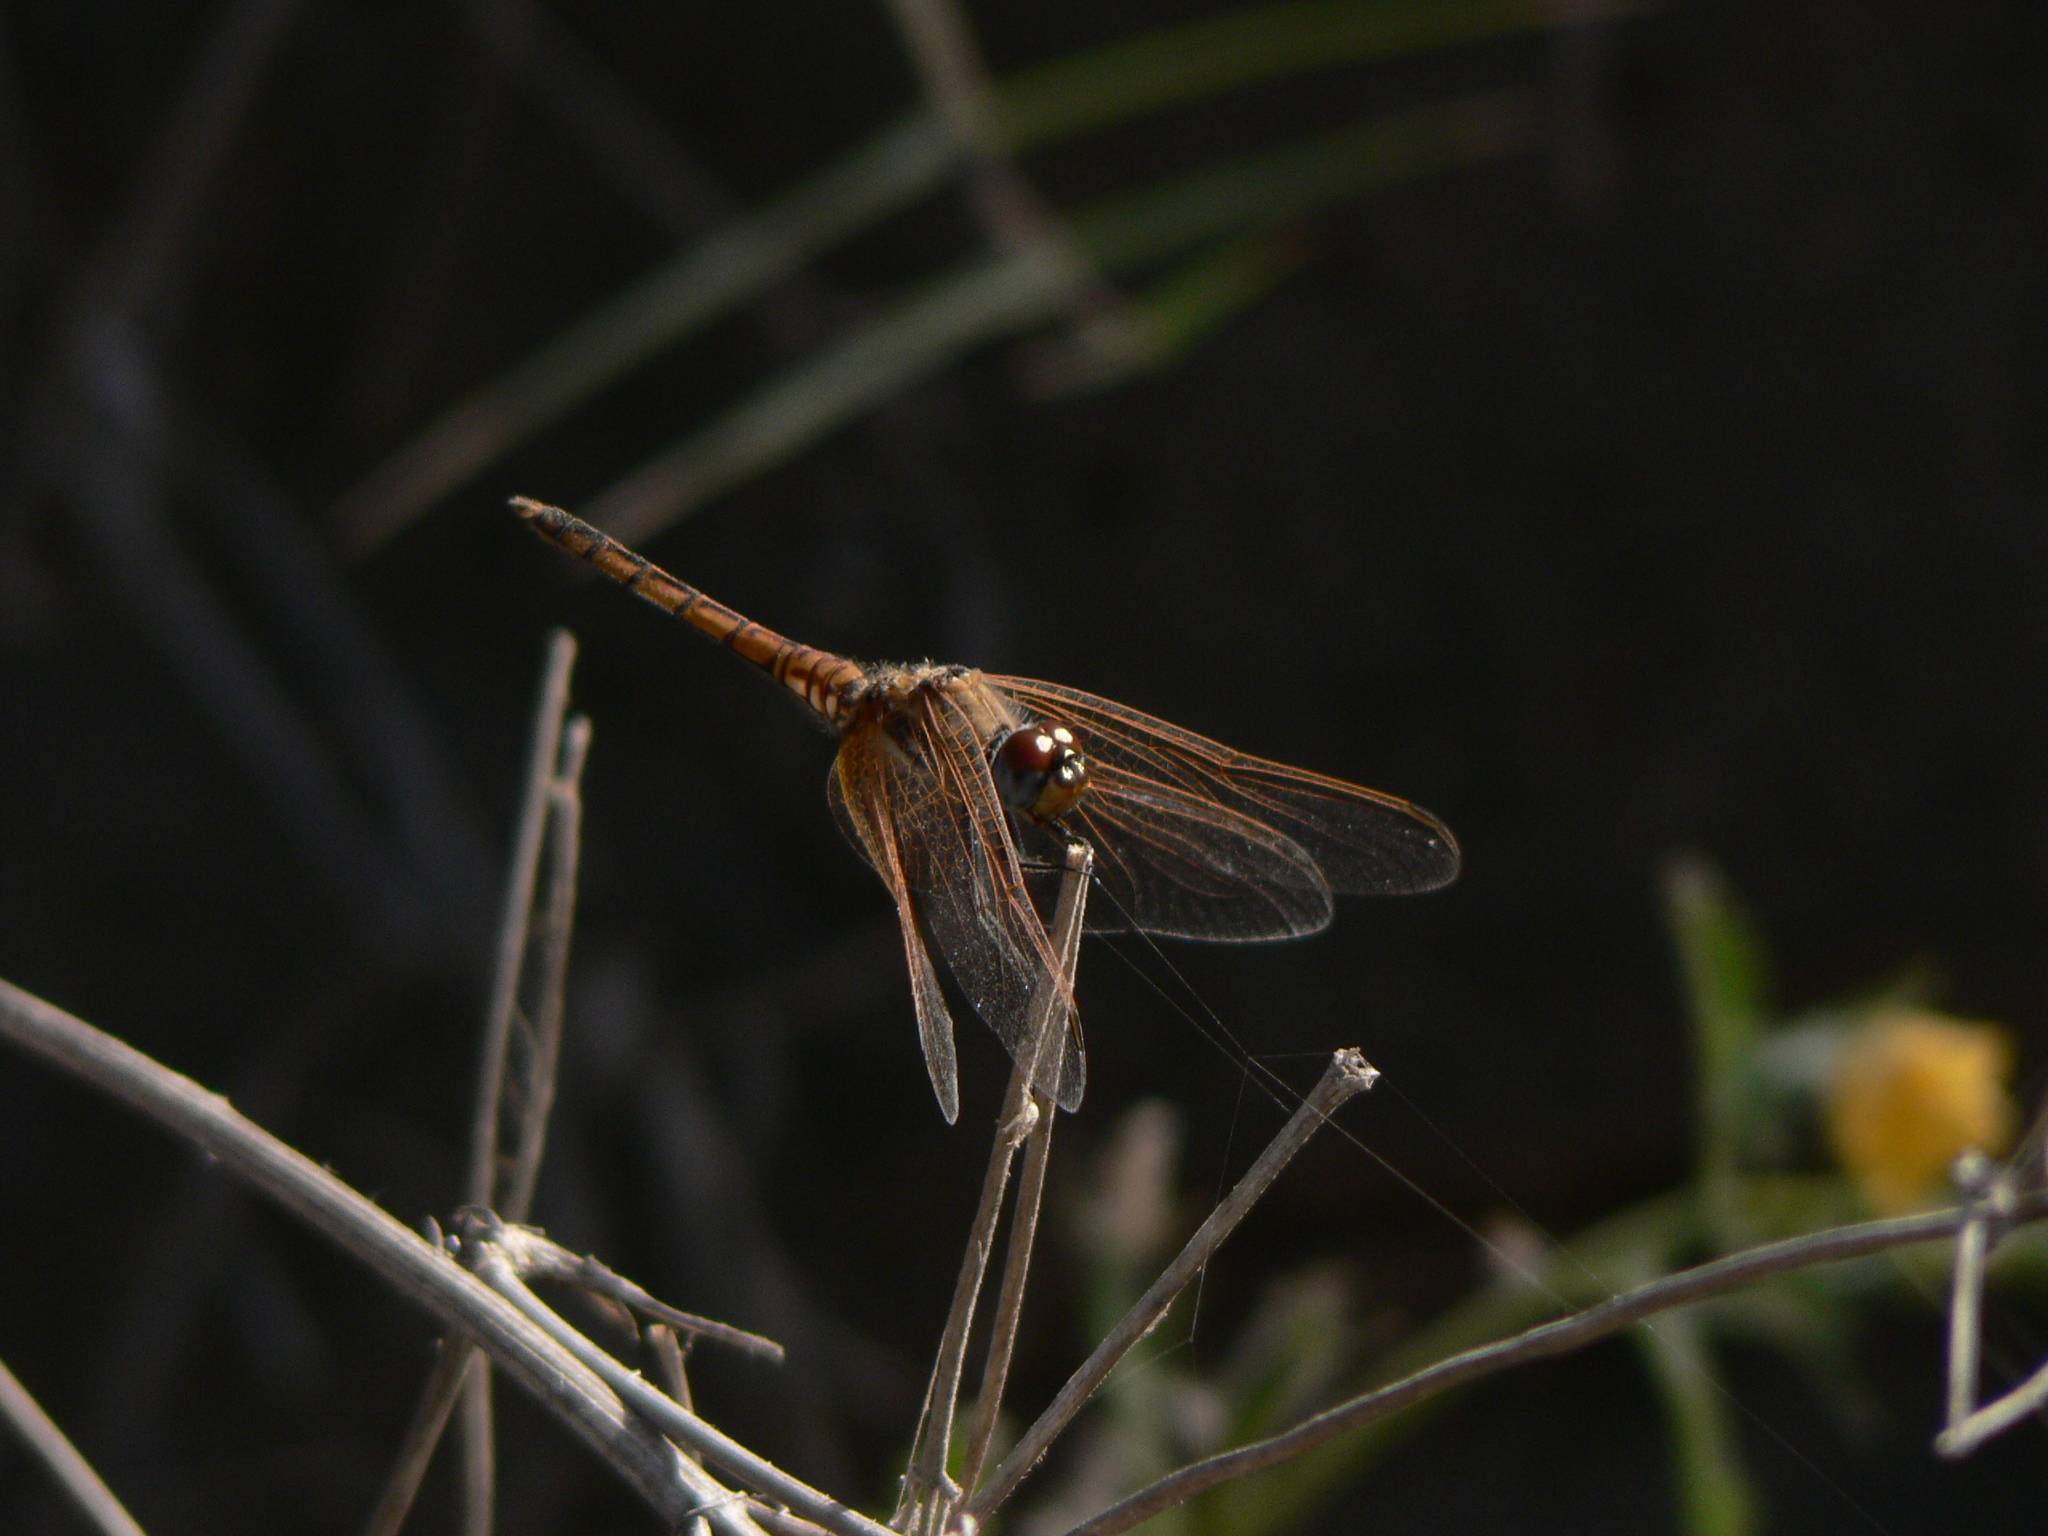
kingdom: Animalia
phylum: Arthropoda
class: Insecta
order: Odonata
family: Libellulidae
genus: Trithemis
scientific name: Trithemis annulata
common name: Violet dropwing
